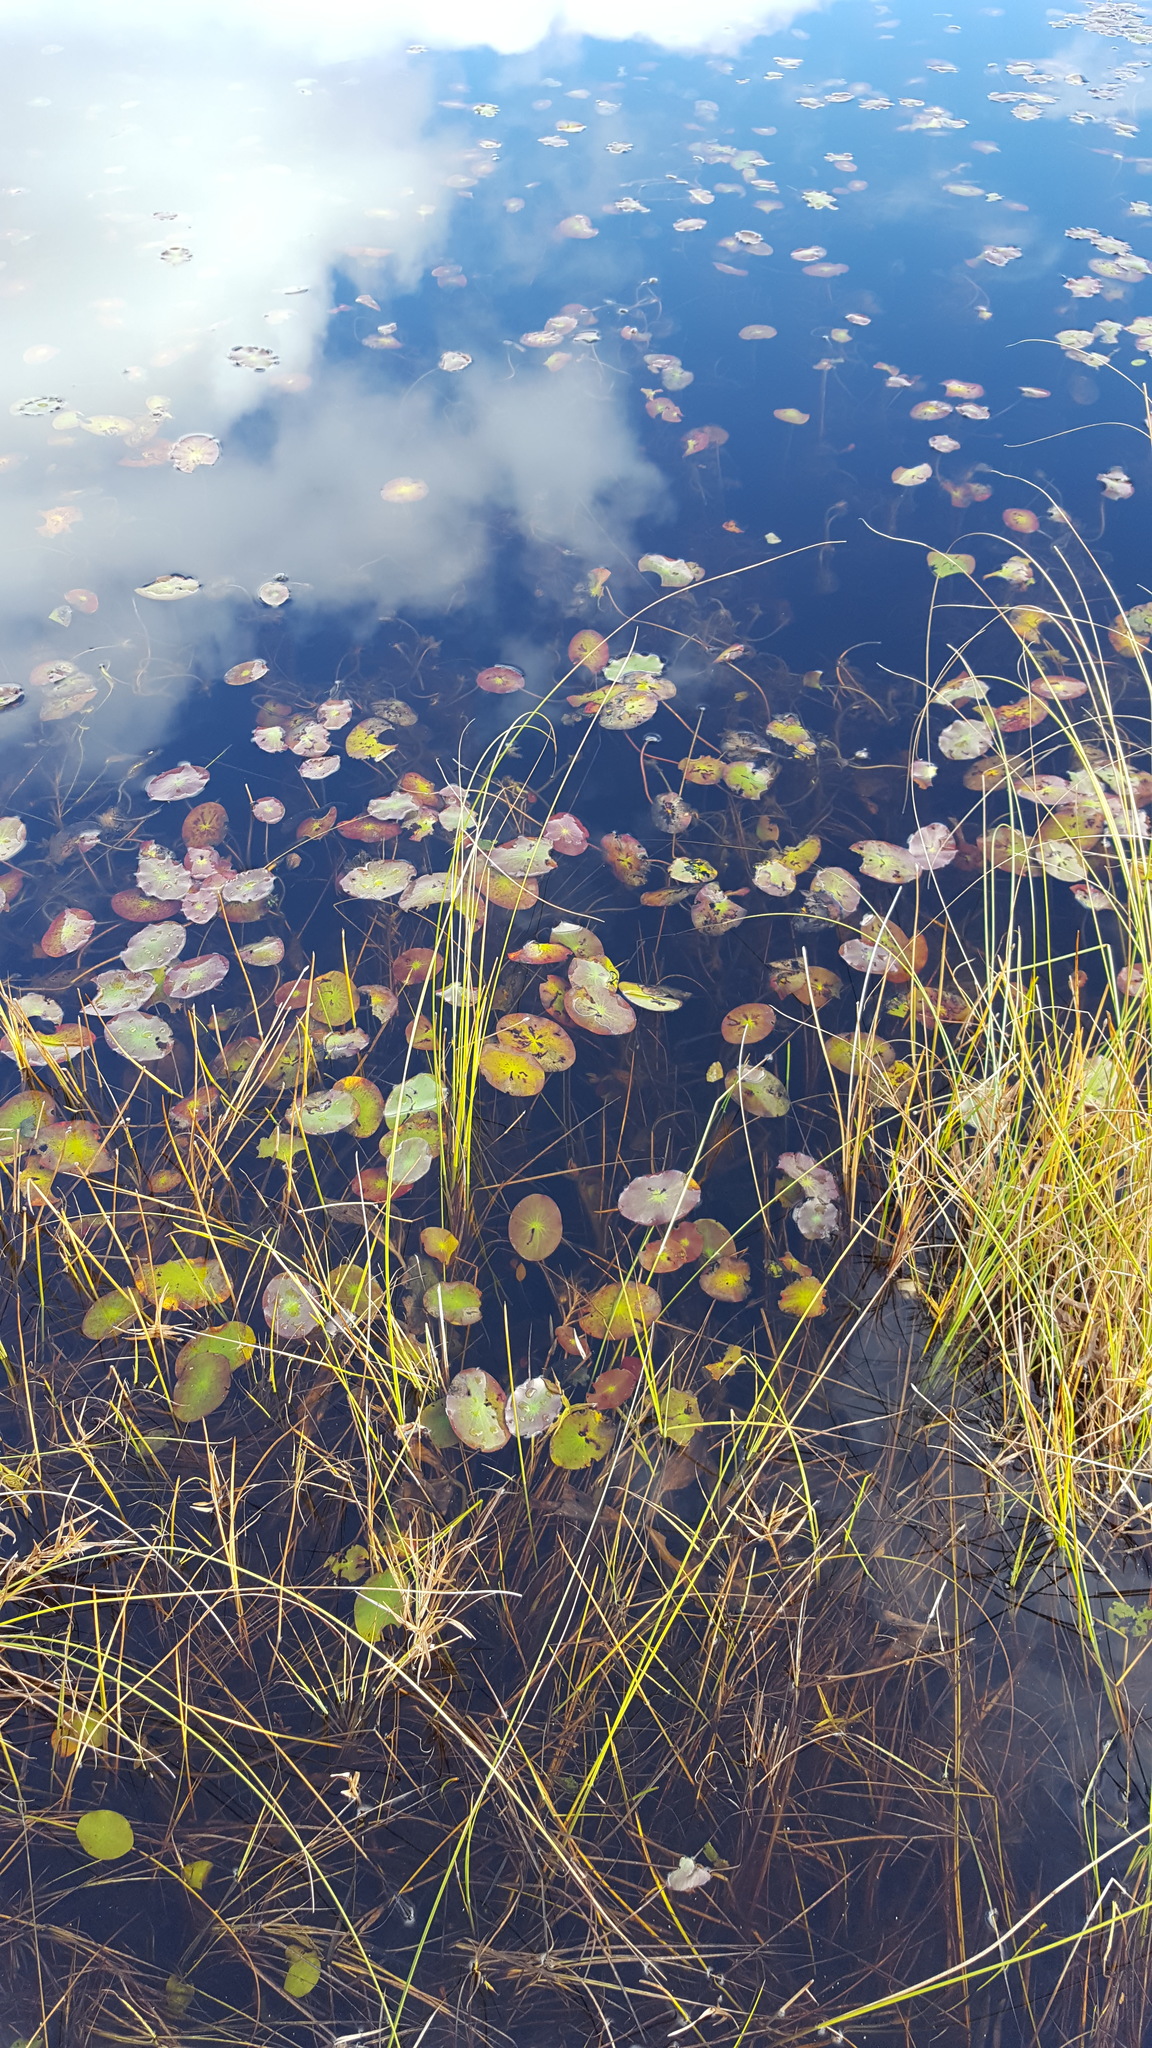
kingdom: Plantae
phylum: Tracheophyta
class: Magnoliopsida
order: Nymphaeales
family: Cabombaceae
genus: Brasenia
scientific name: Brasenia schreberi
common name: Water-shield
